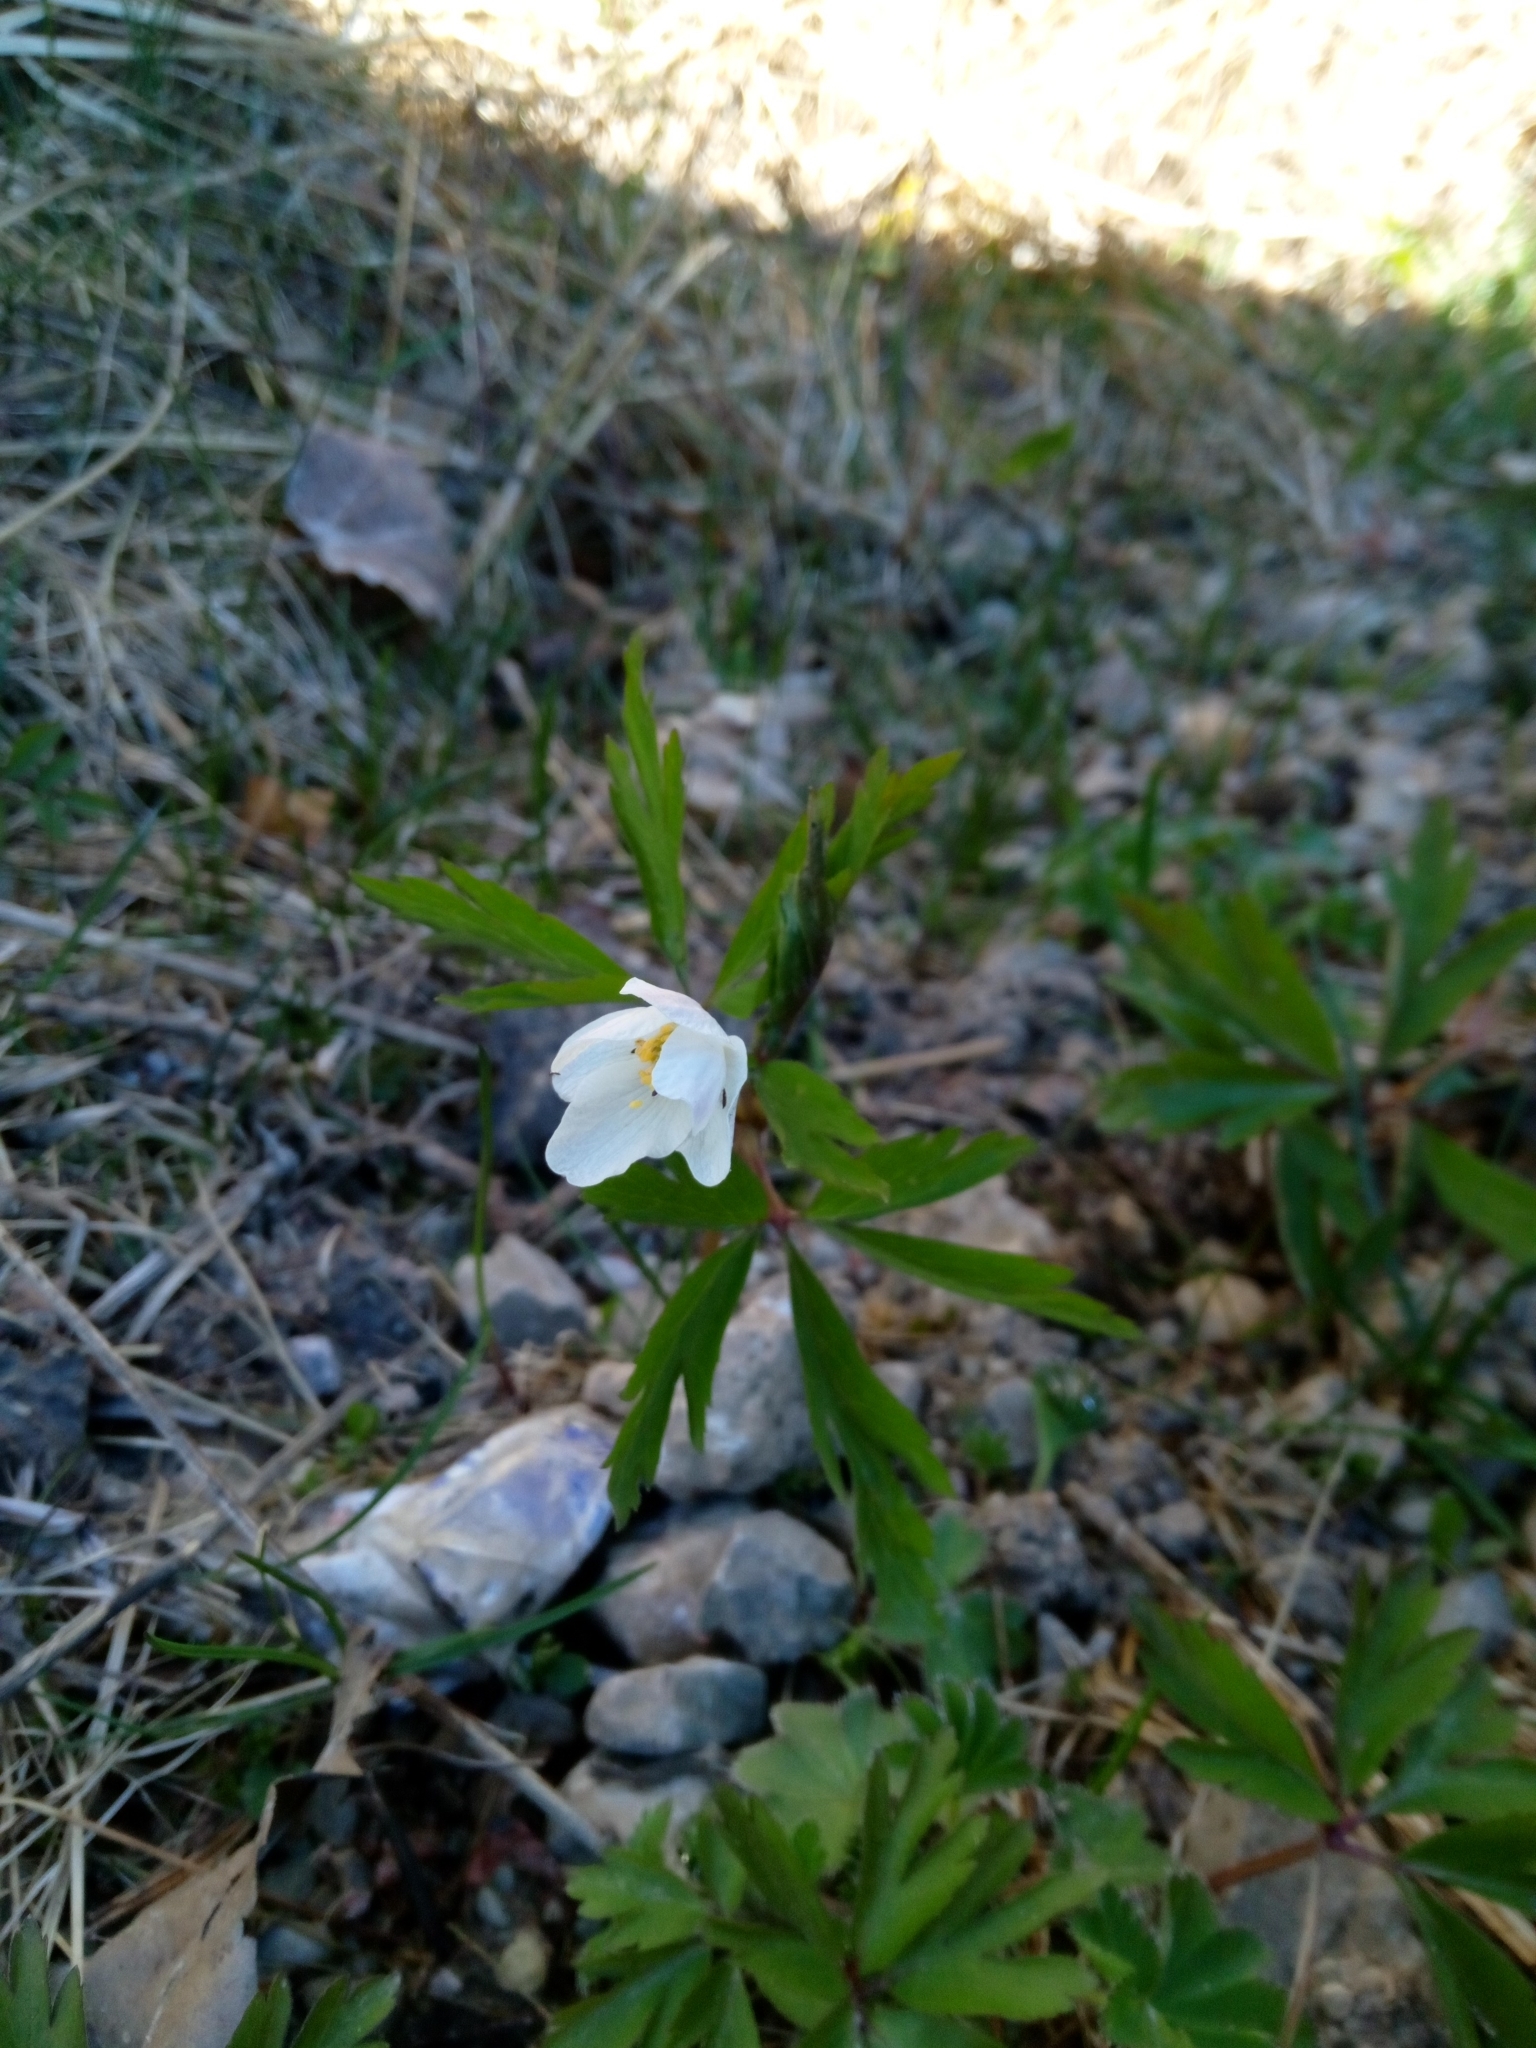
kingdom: Plantae
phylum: Tracheophyta
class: Magnoliopsida
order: Ranunculales
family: Ranunculaceae
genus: Anemone
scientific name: Anemone nemorosa
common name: Wood anemone
